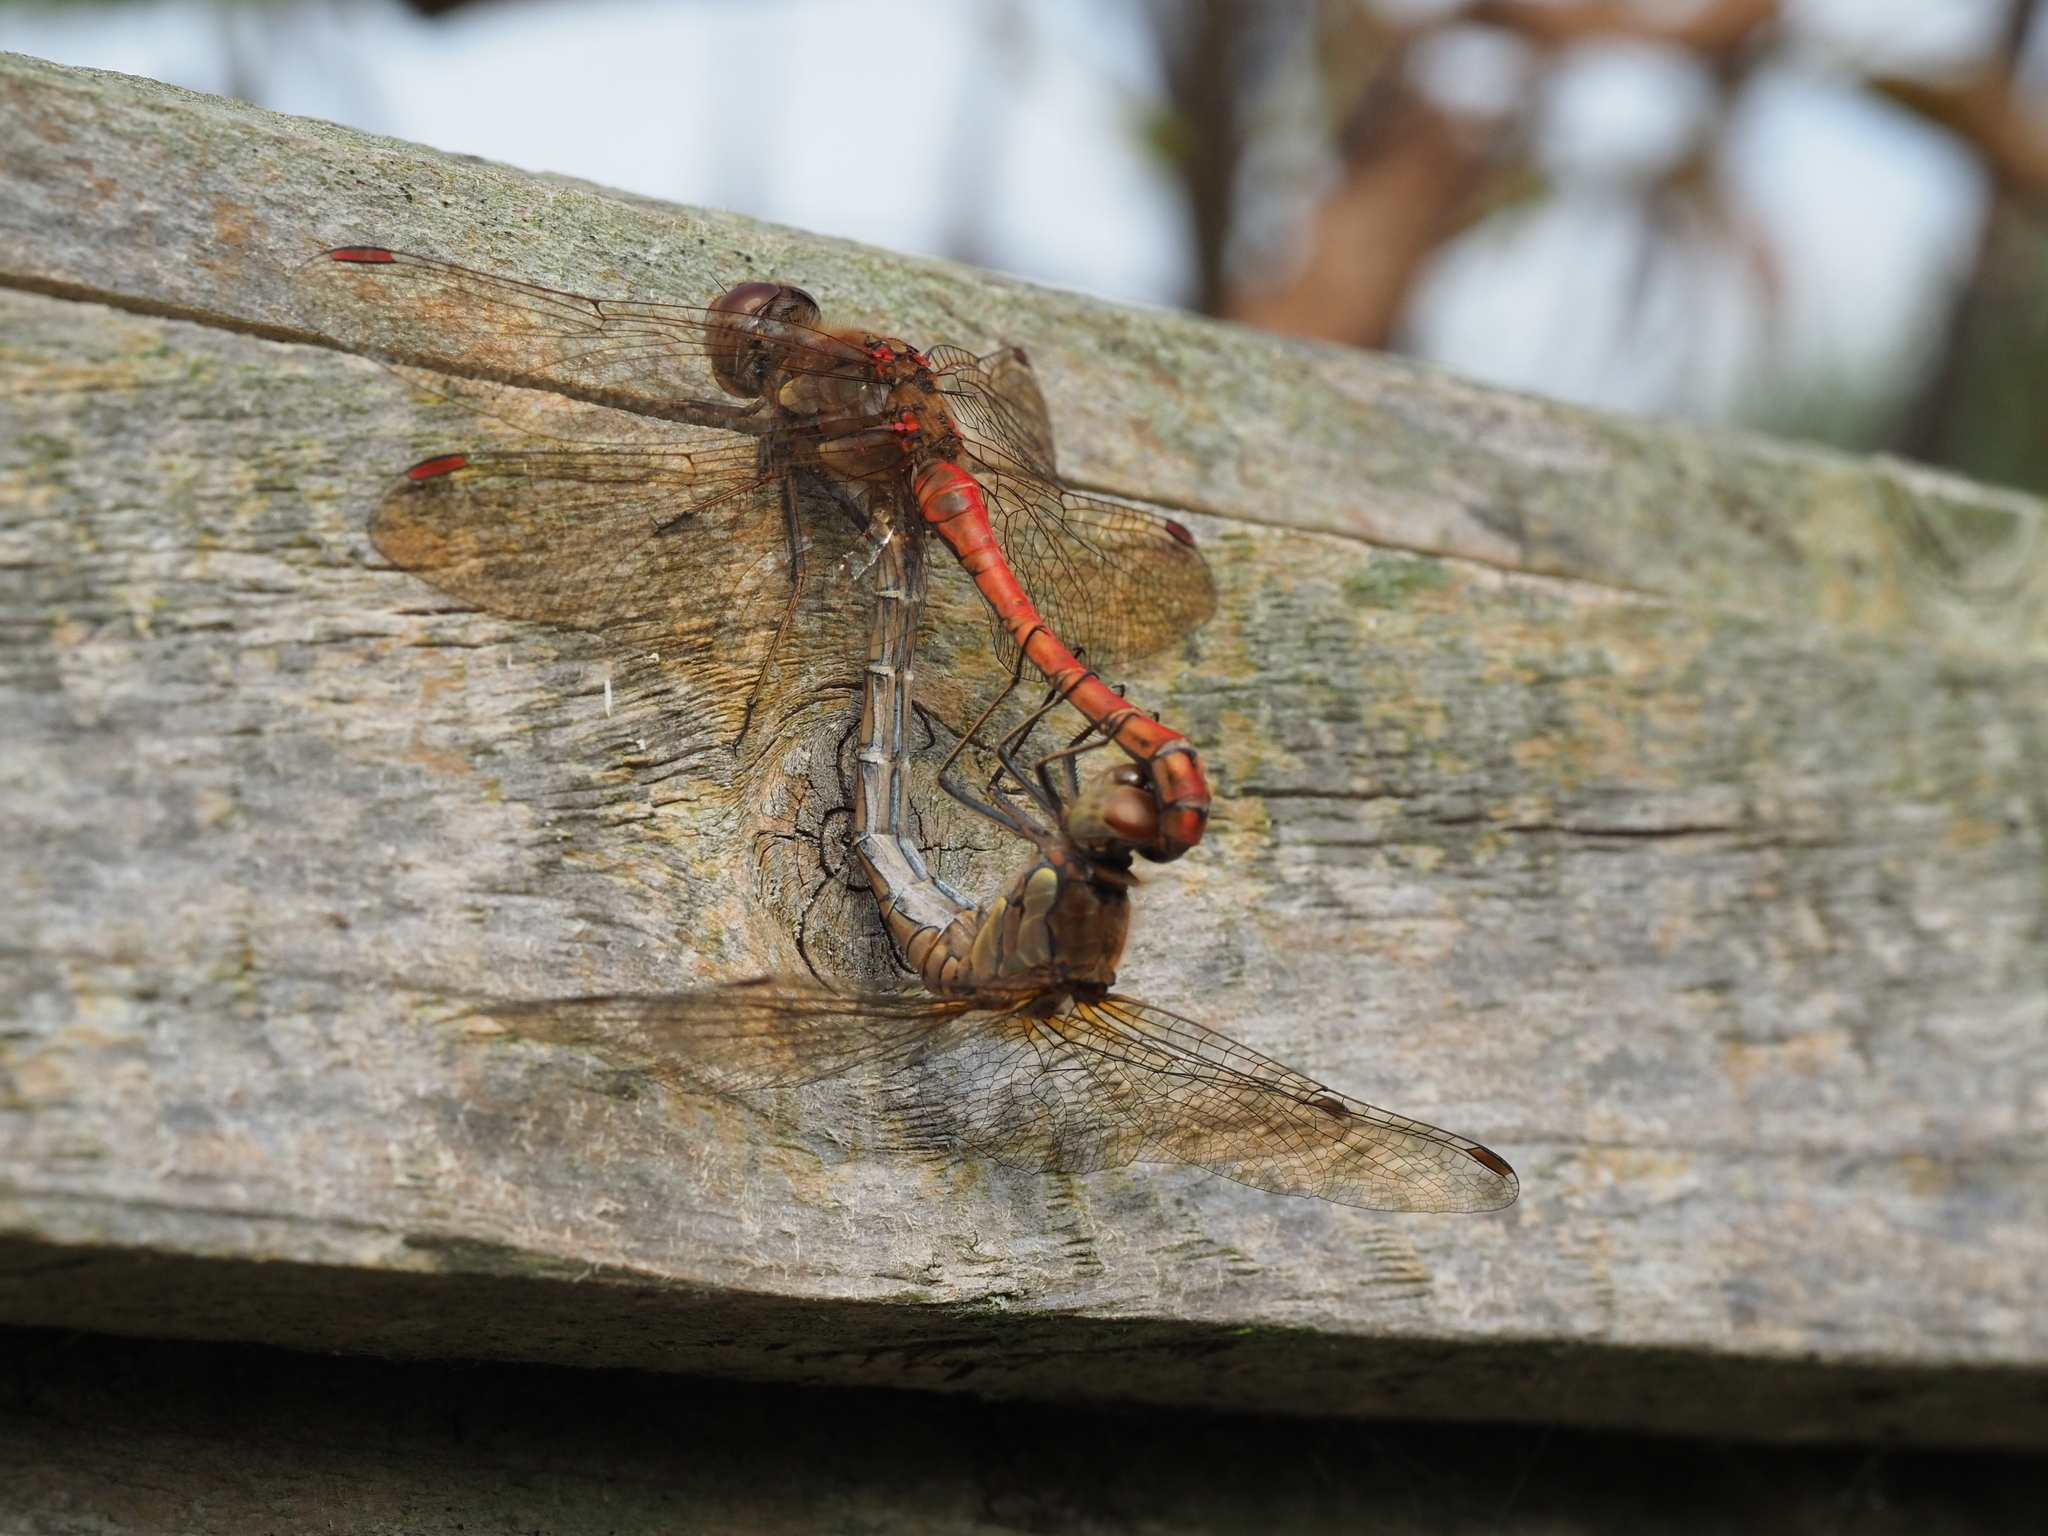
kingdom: Animalia
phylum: Arthropoda
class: Insecta
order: Odonata
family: Libellulidae
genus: Sympetrum
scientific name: Sympetrum striolatum
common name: Common darter
